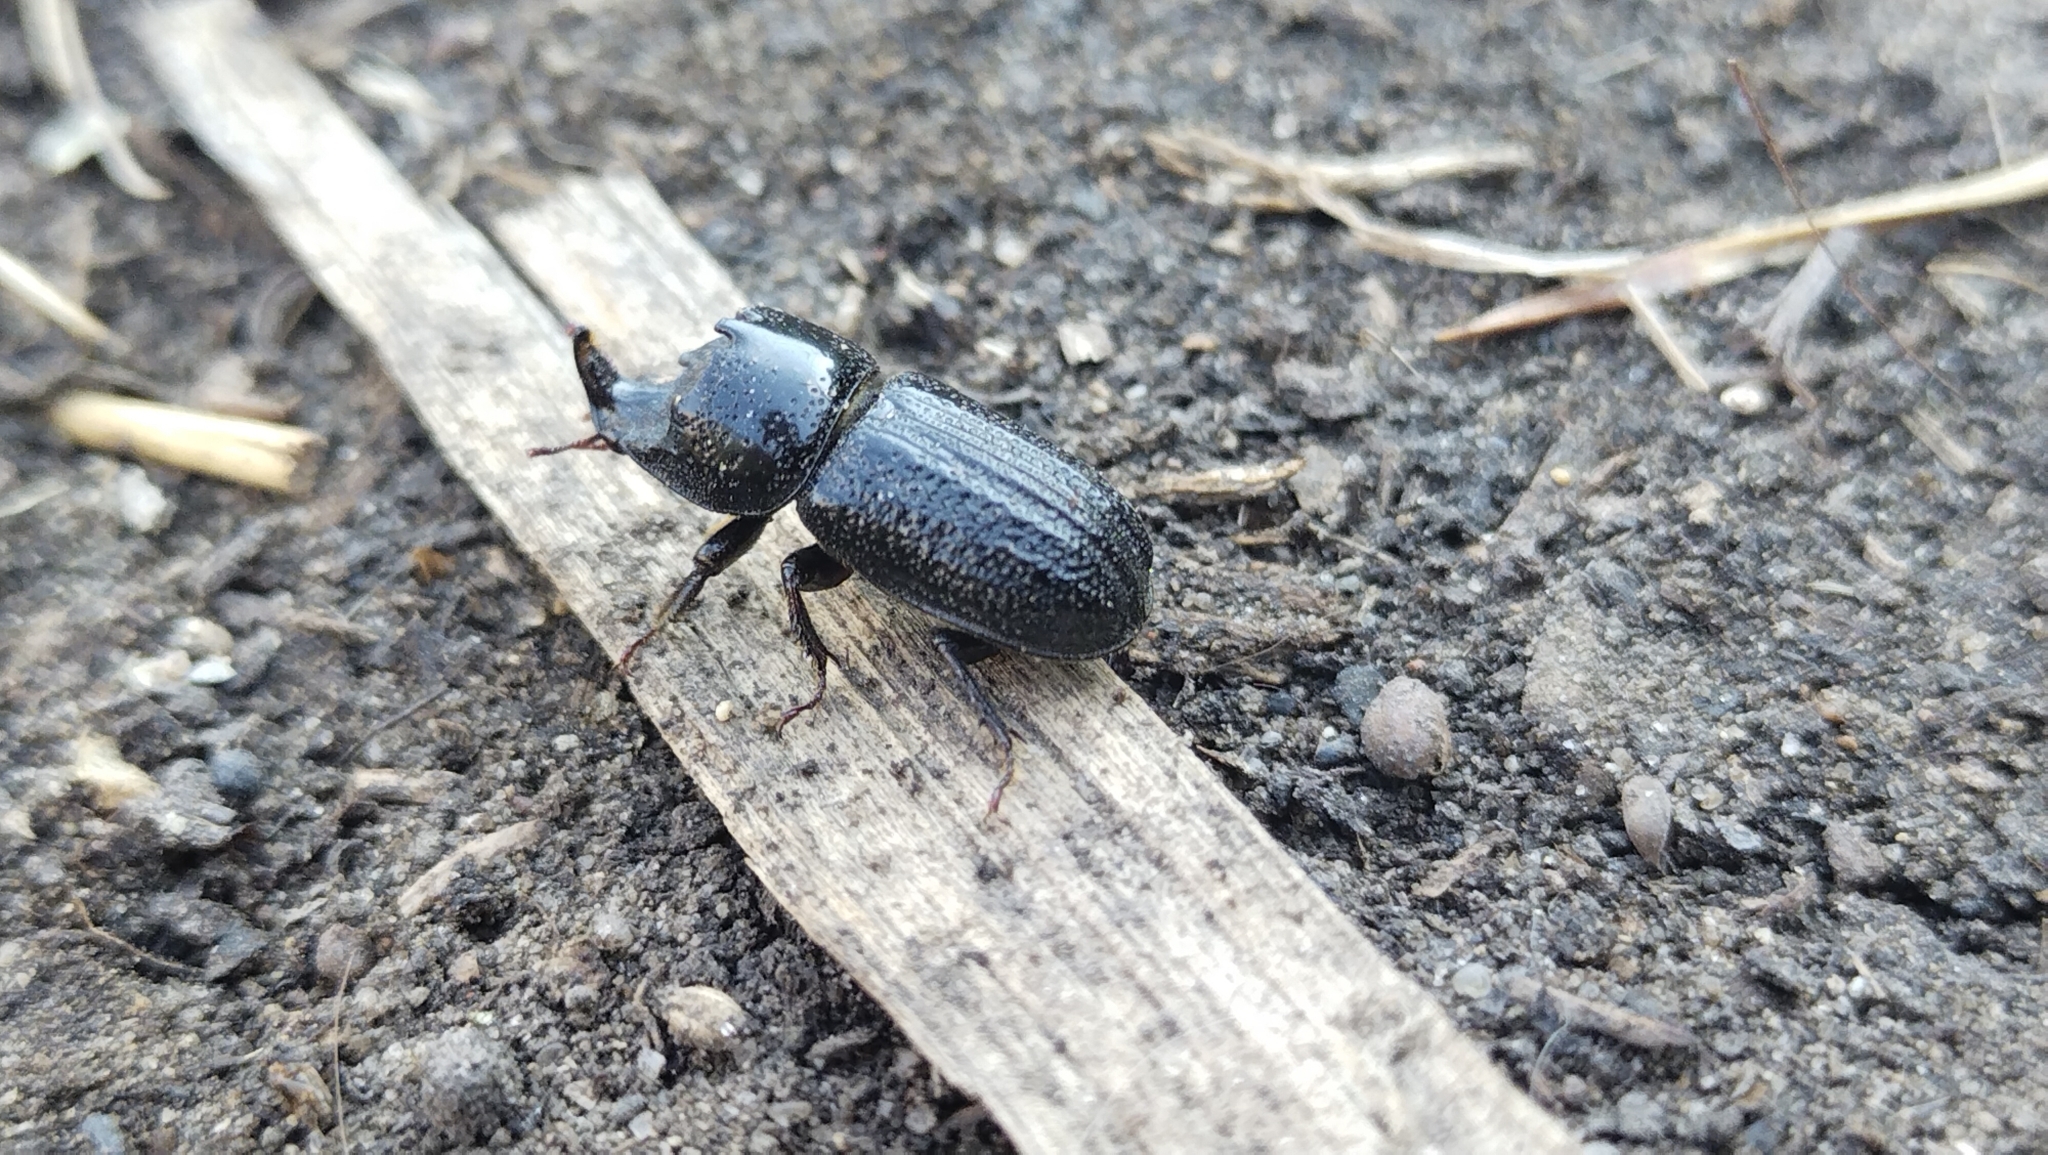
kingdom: Animalia
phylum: Arthropoda
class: Insecta
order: Coleoptera
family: Lucanidae
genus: Sinodendron
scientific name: Sinodendron cylindricum
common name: Rhinoceros beetle
